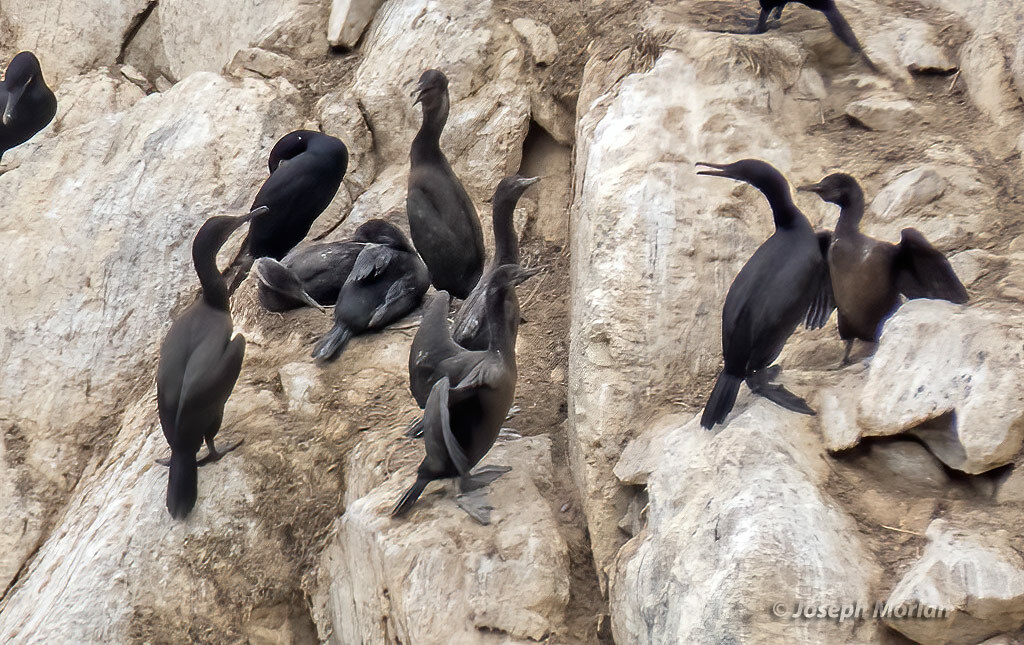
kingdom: Animalia
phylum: Chordata
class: Aves
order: Suliformes
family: Phalacrocoracidae
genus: Urile
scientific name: Urile penicillatus
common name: Brandt's cormorant
